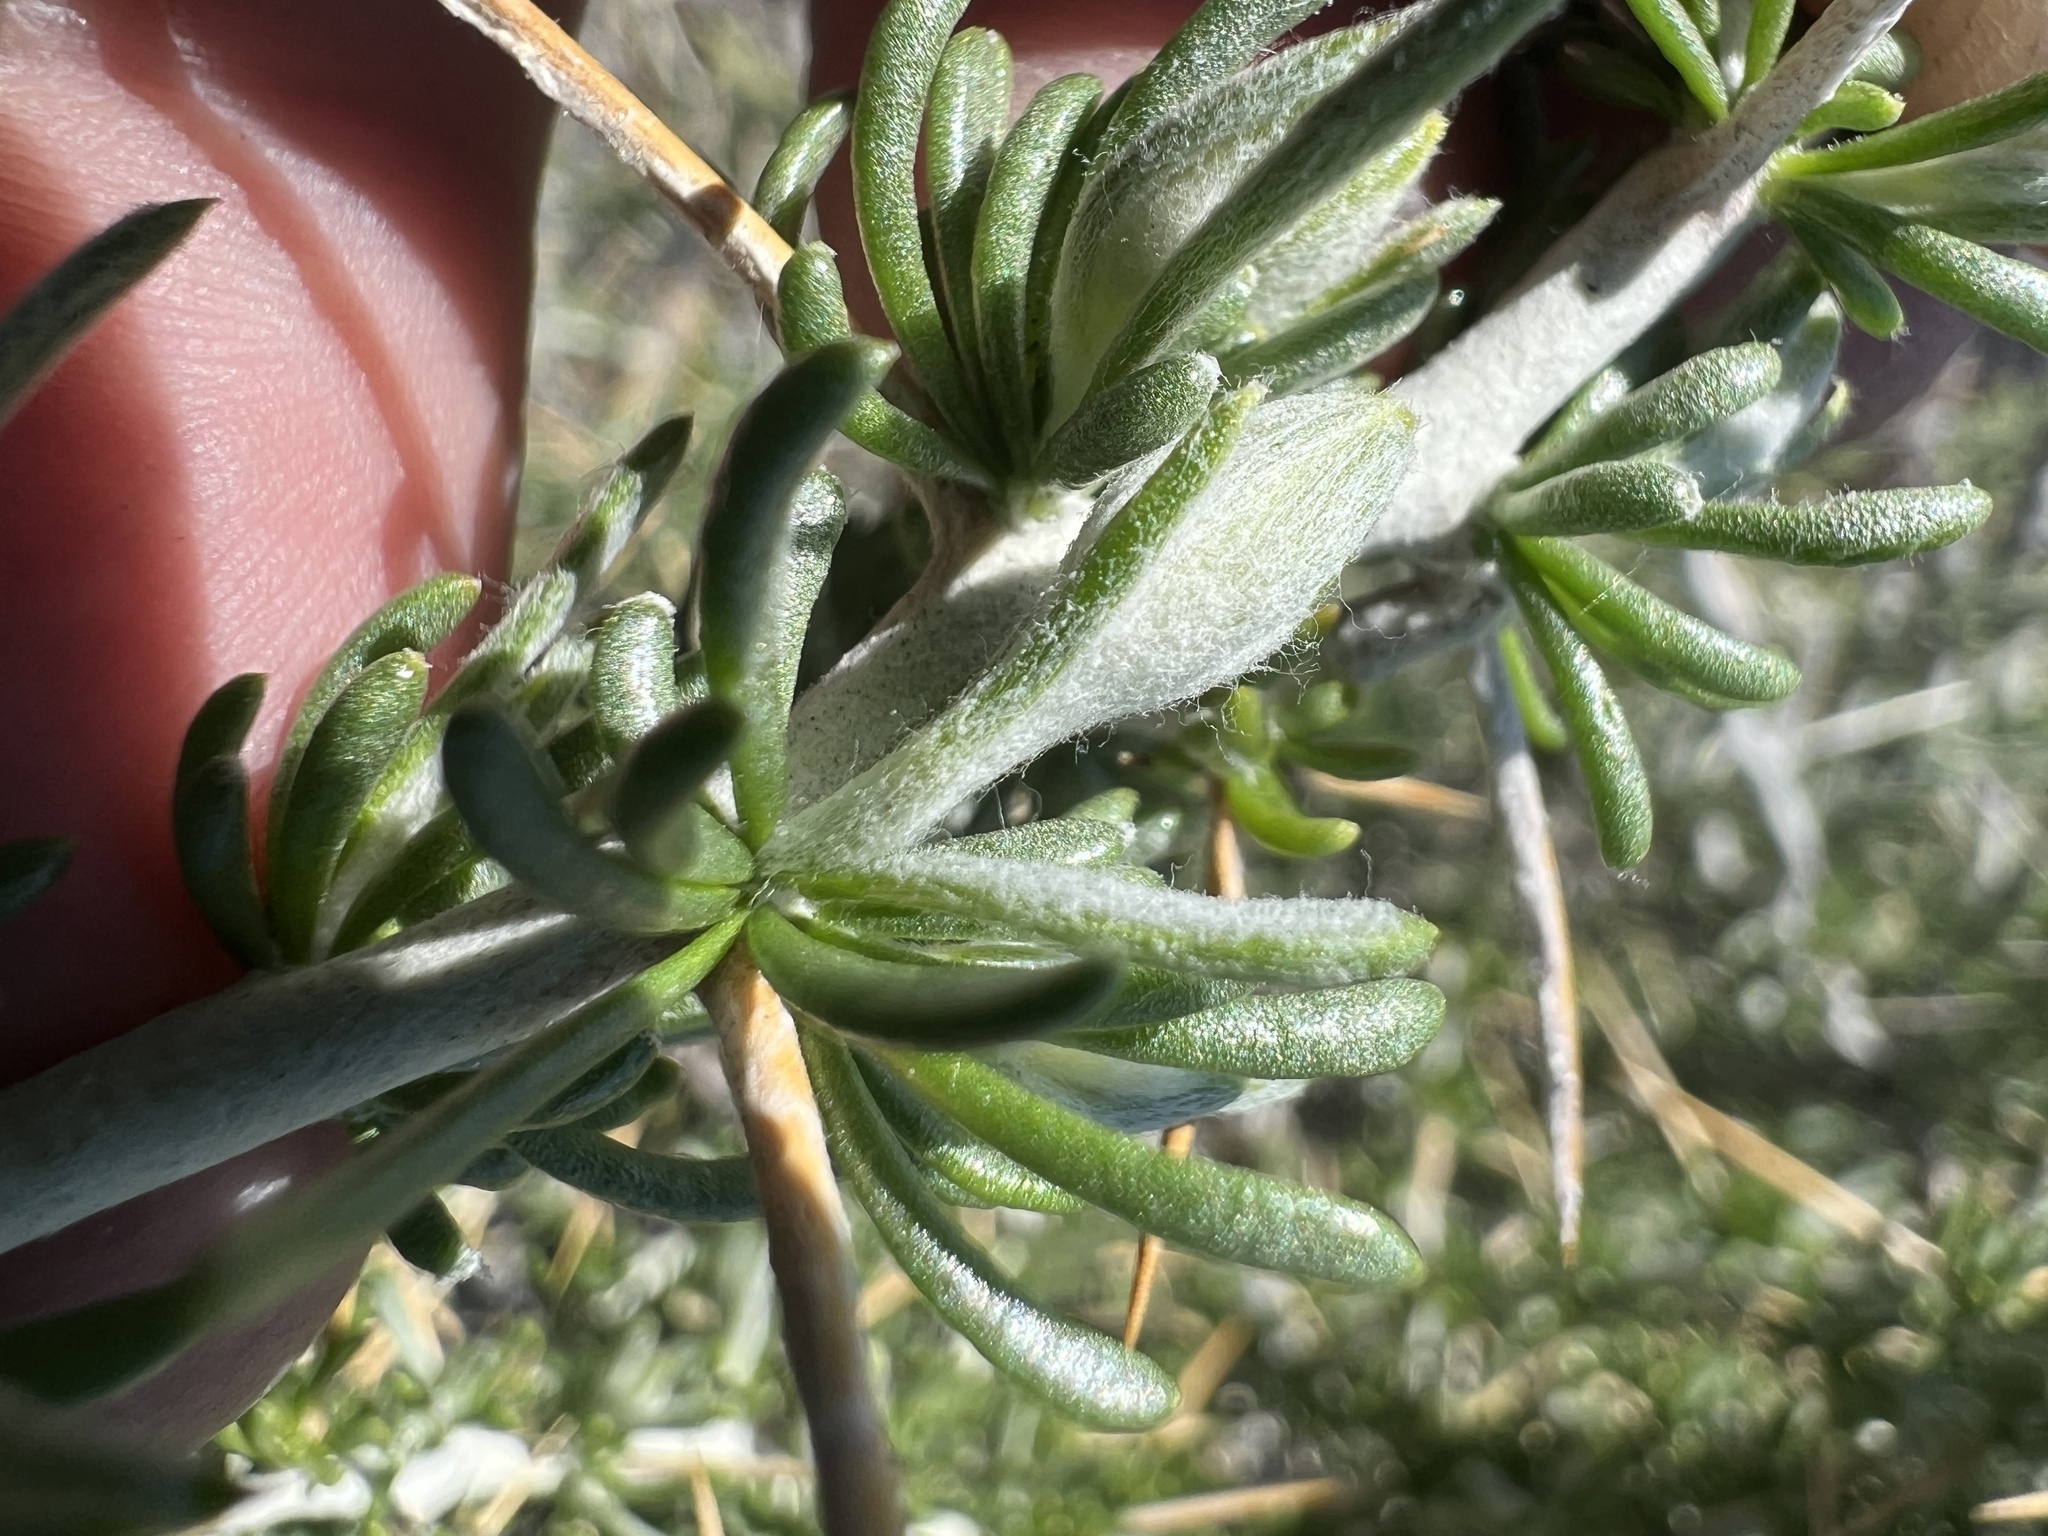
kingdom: Plantae
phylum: Tracheophyta
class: Magnoliopsida
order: Asterales
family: Asteraceae
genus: Tetradymia
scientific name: Tetradymia axillaris
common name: Long-spine horsebrush
